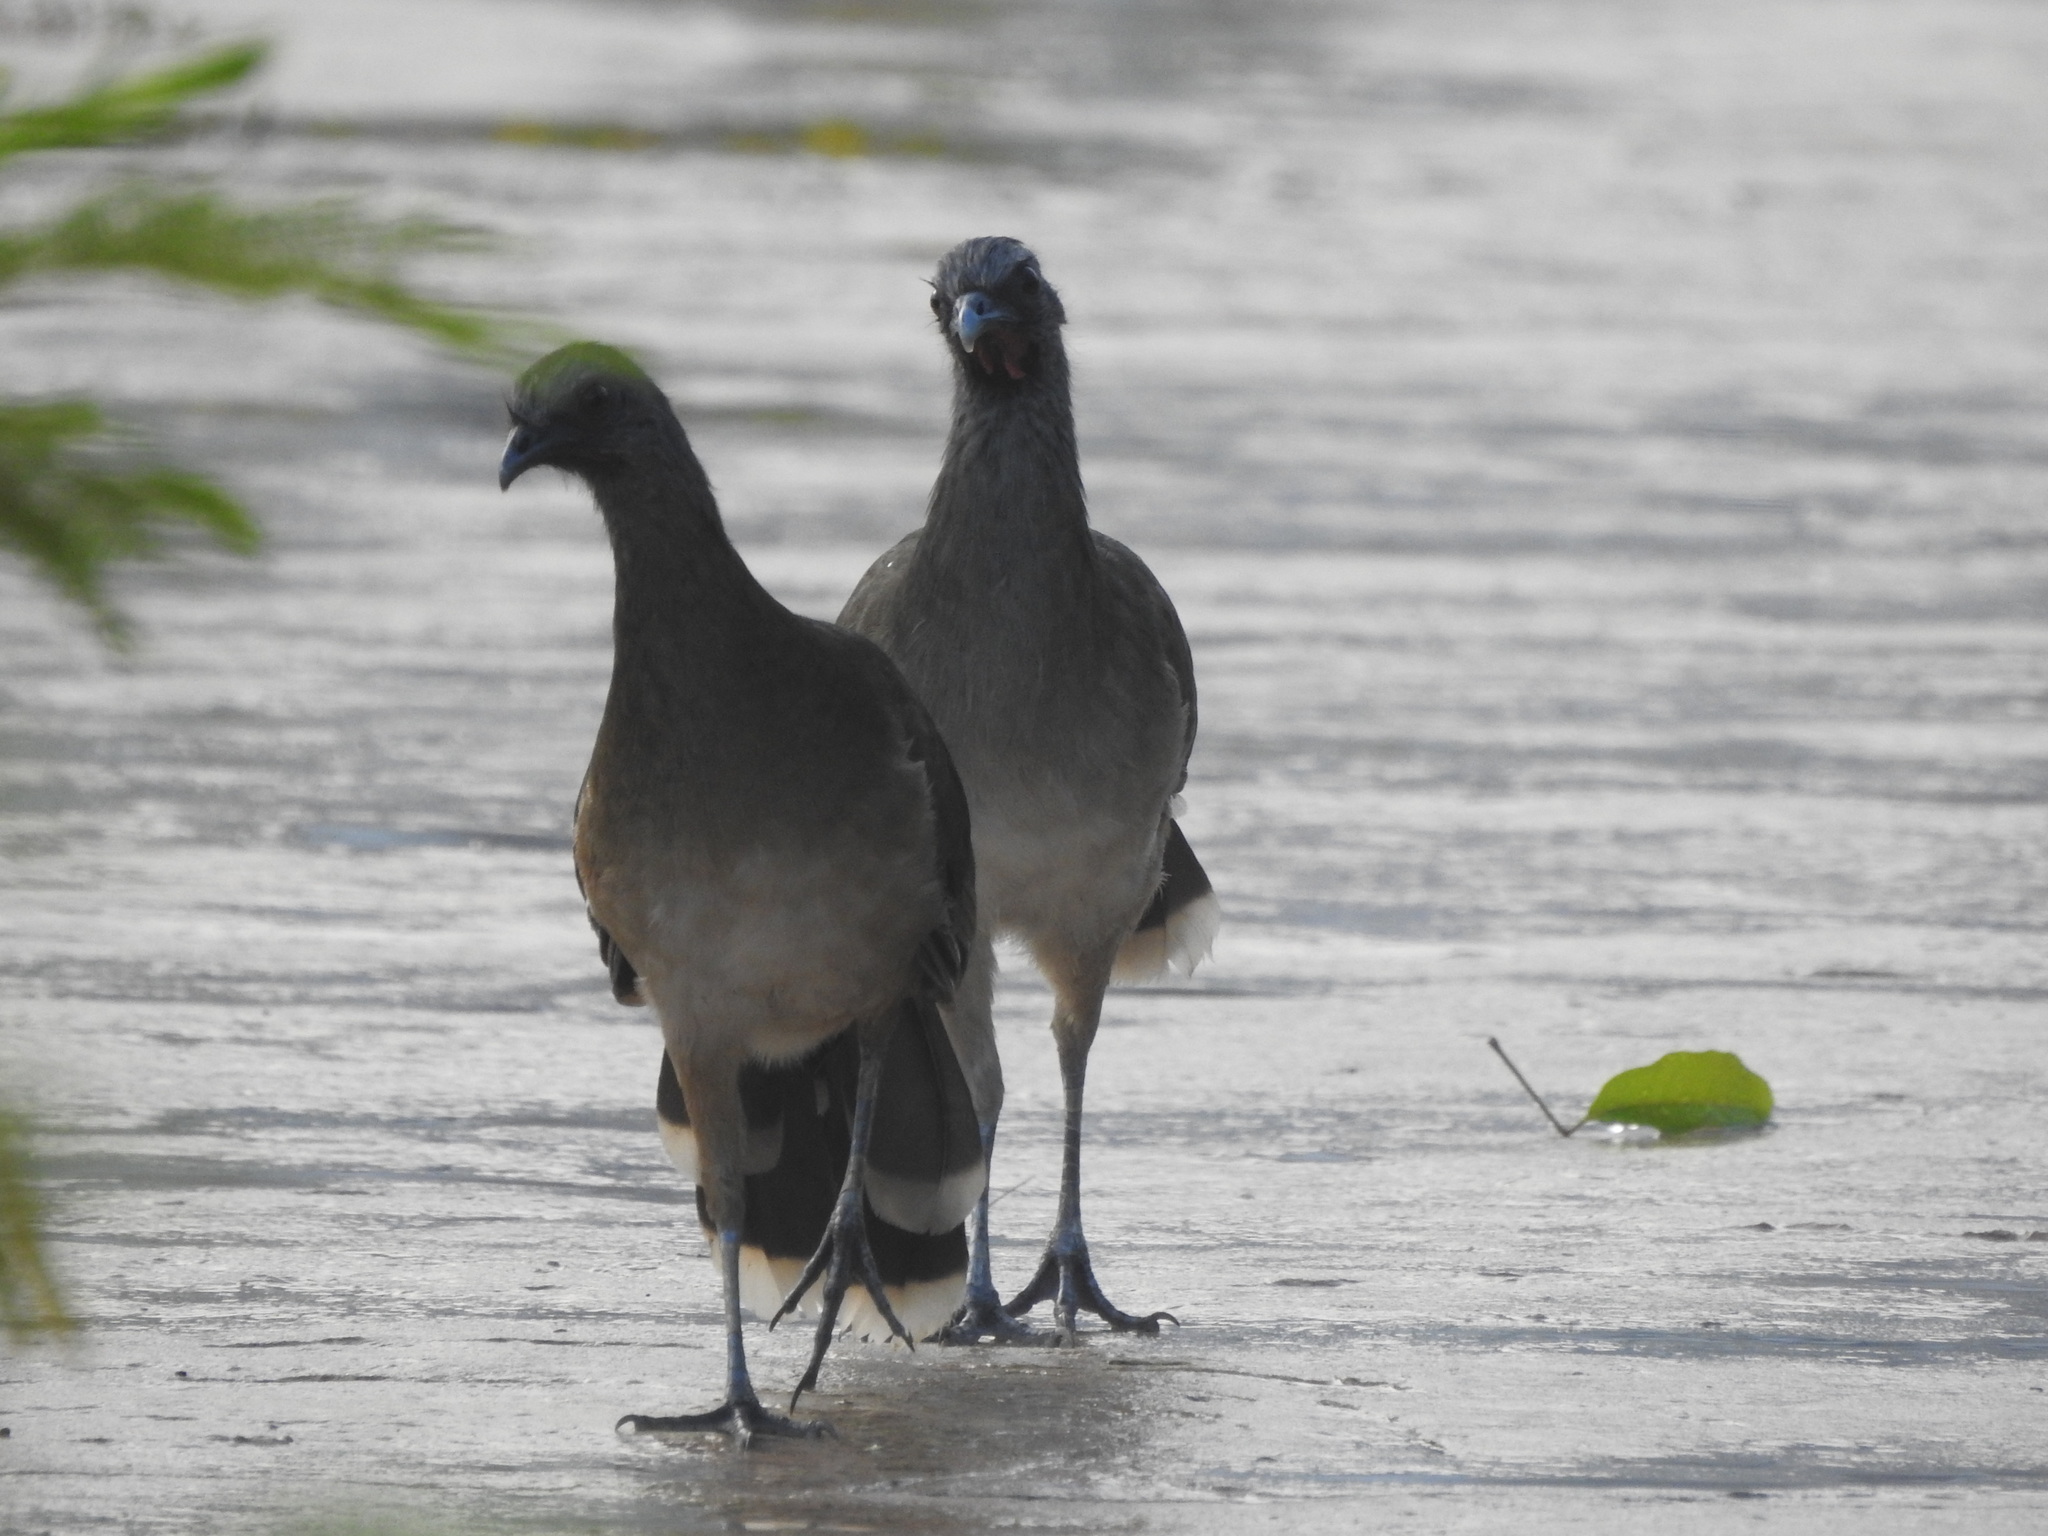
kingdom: Animalia
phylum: Chordata
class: Aves
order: Galliformes
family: Cracidae
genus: Ortalis
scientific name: Ortalis vetula
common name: Plain chachalaca
